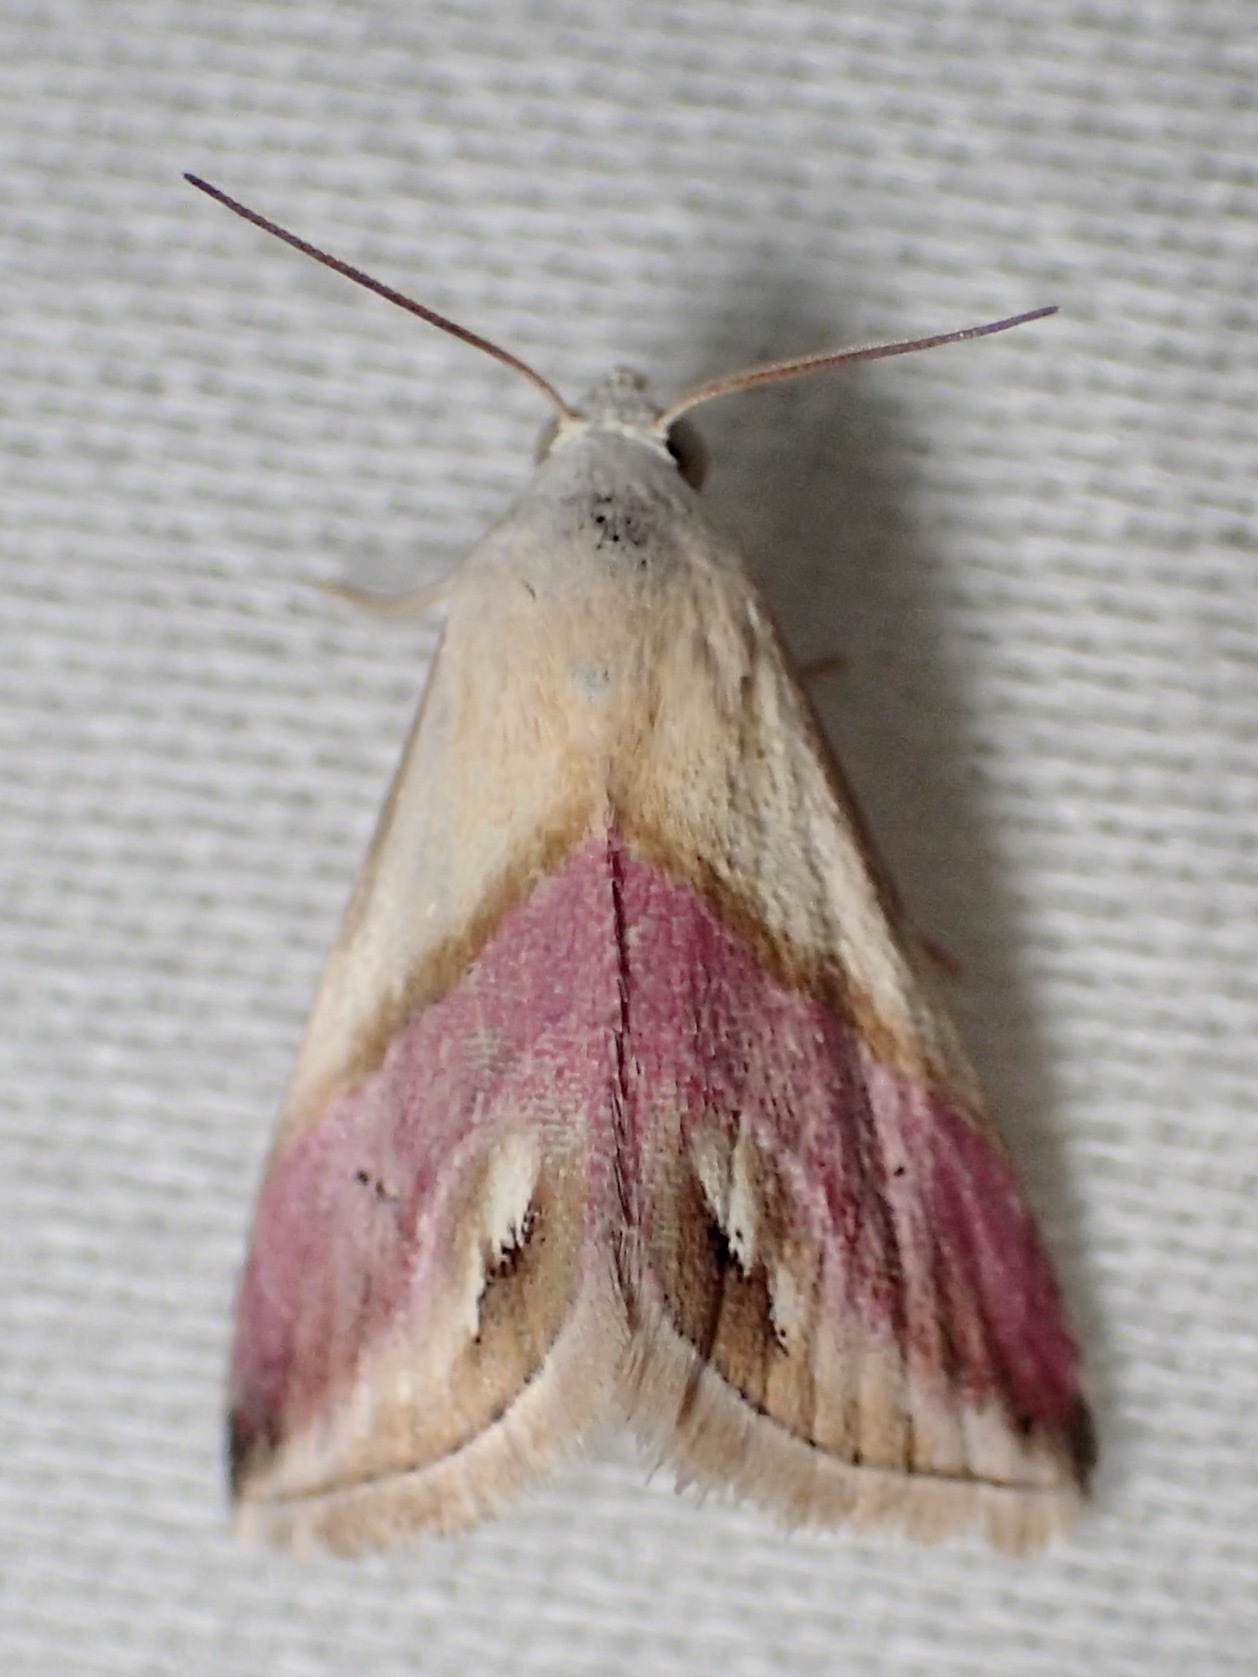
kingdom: Animalia
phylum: Arthropoda
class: Insecta
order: Lepidoptera
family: Noctuidae
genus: Eublemma
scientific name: Eublemma cochylioides
